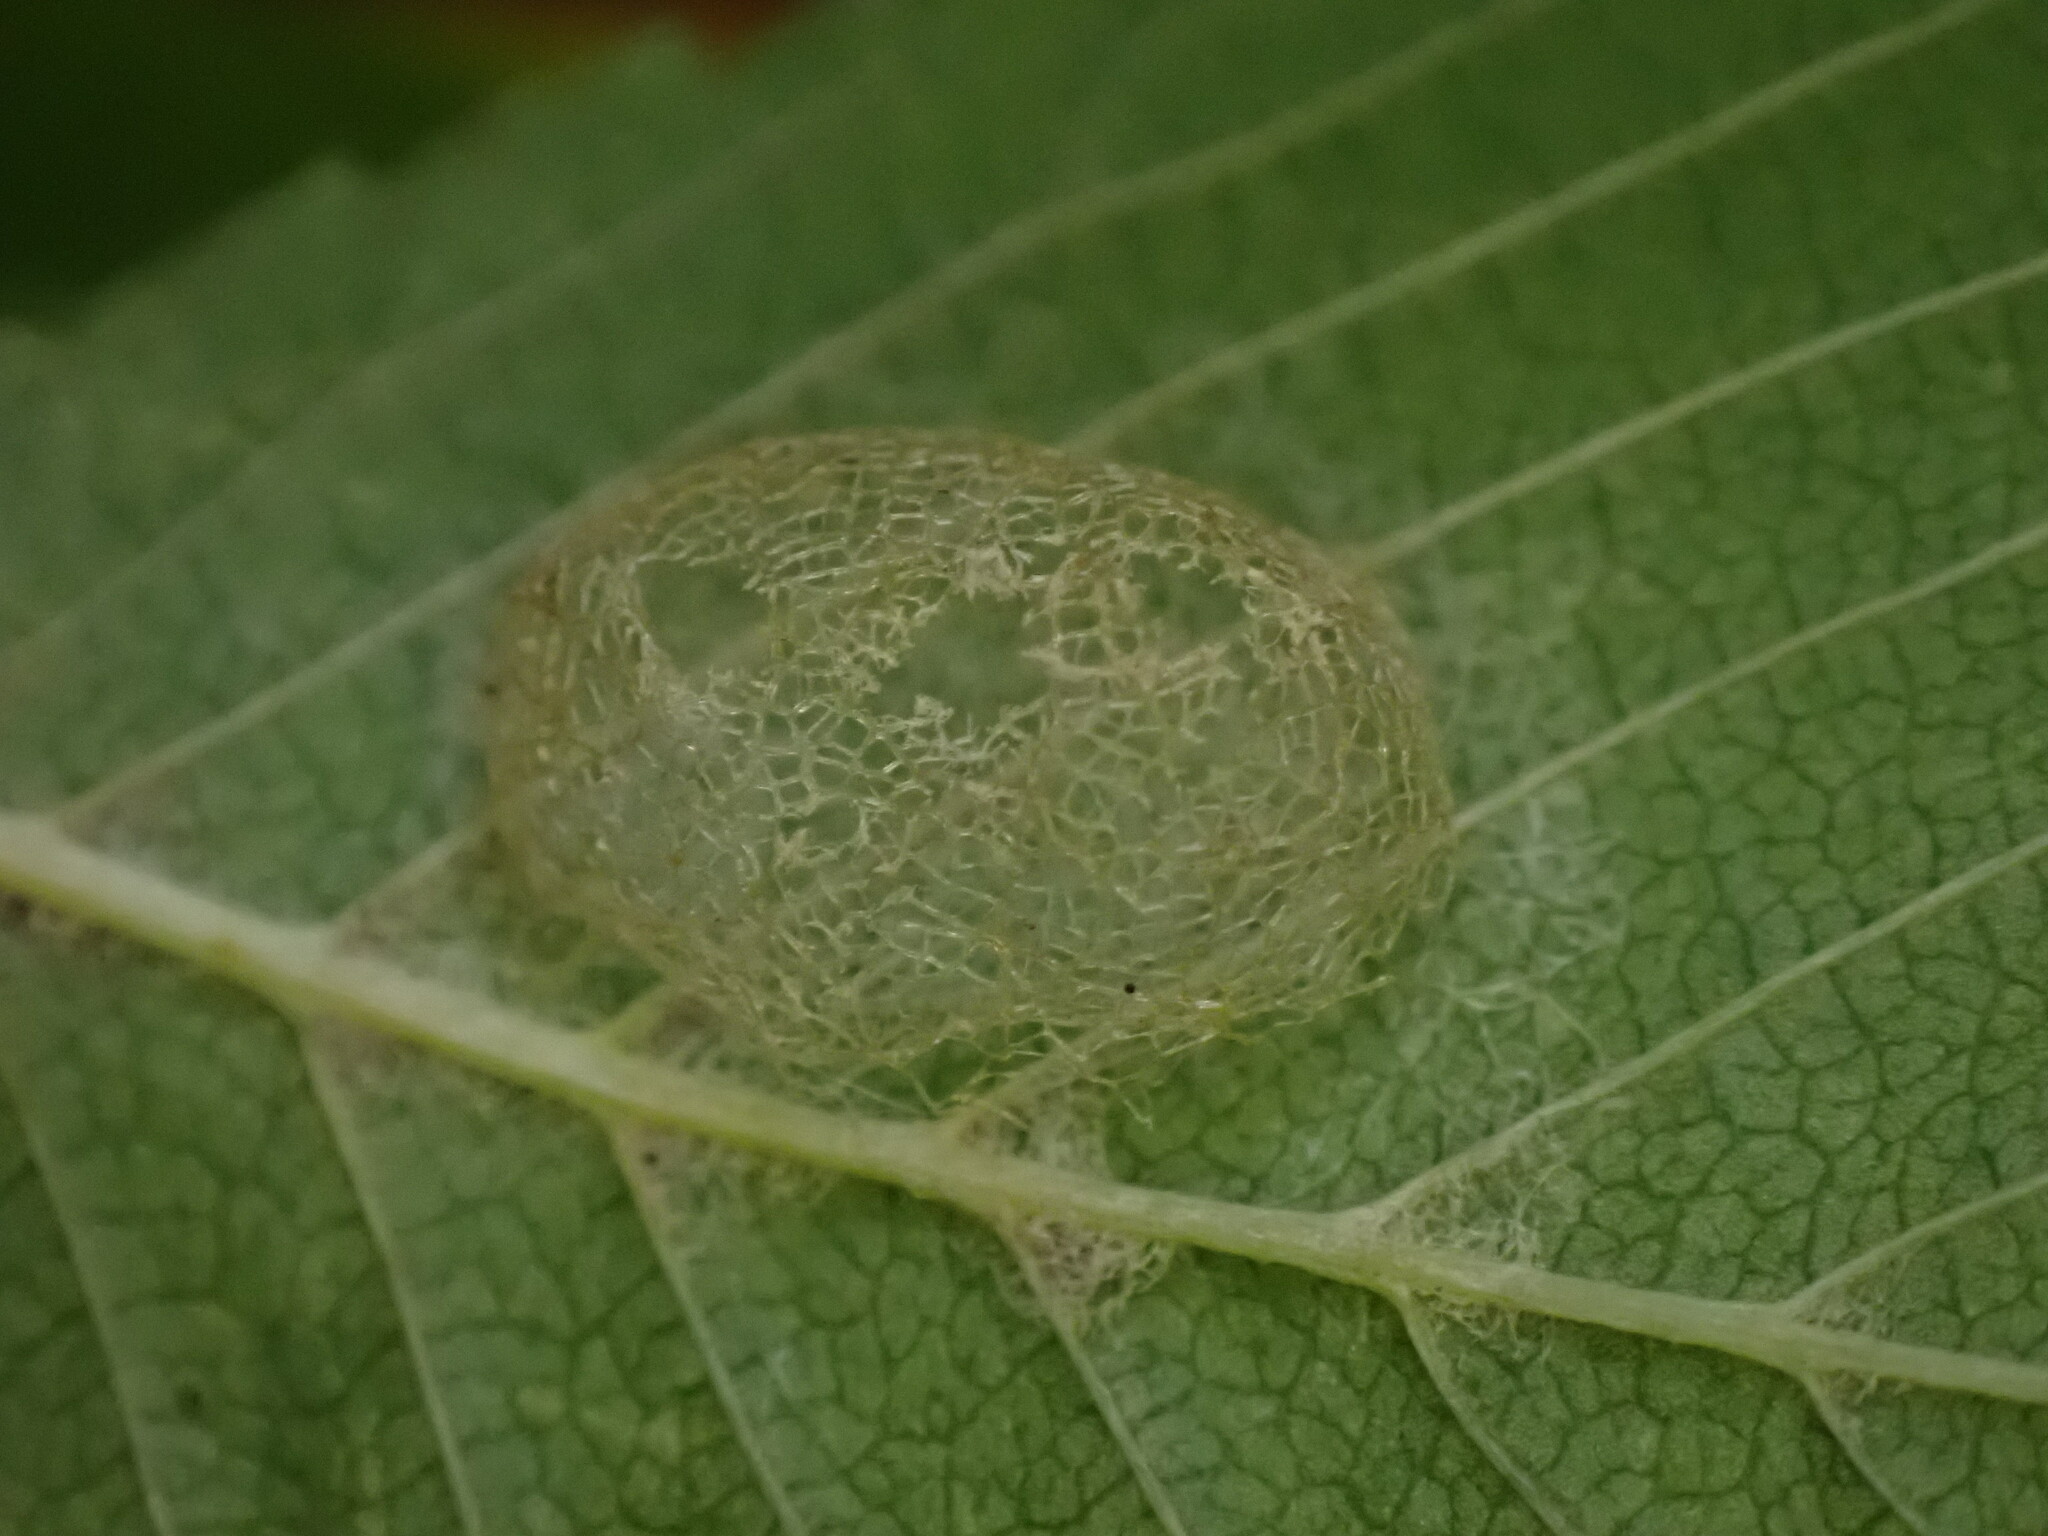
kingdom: Animalia
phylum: Arthropoda
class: Insecta
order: Hymenoptera
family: Argidae
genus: Aproceros
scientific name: Aproceros leucopoda
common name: Zig-zag elm sawfly
